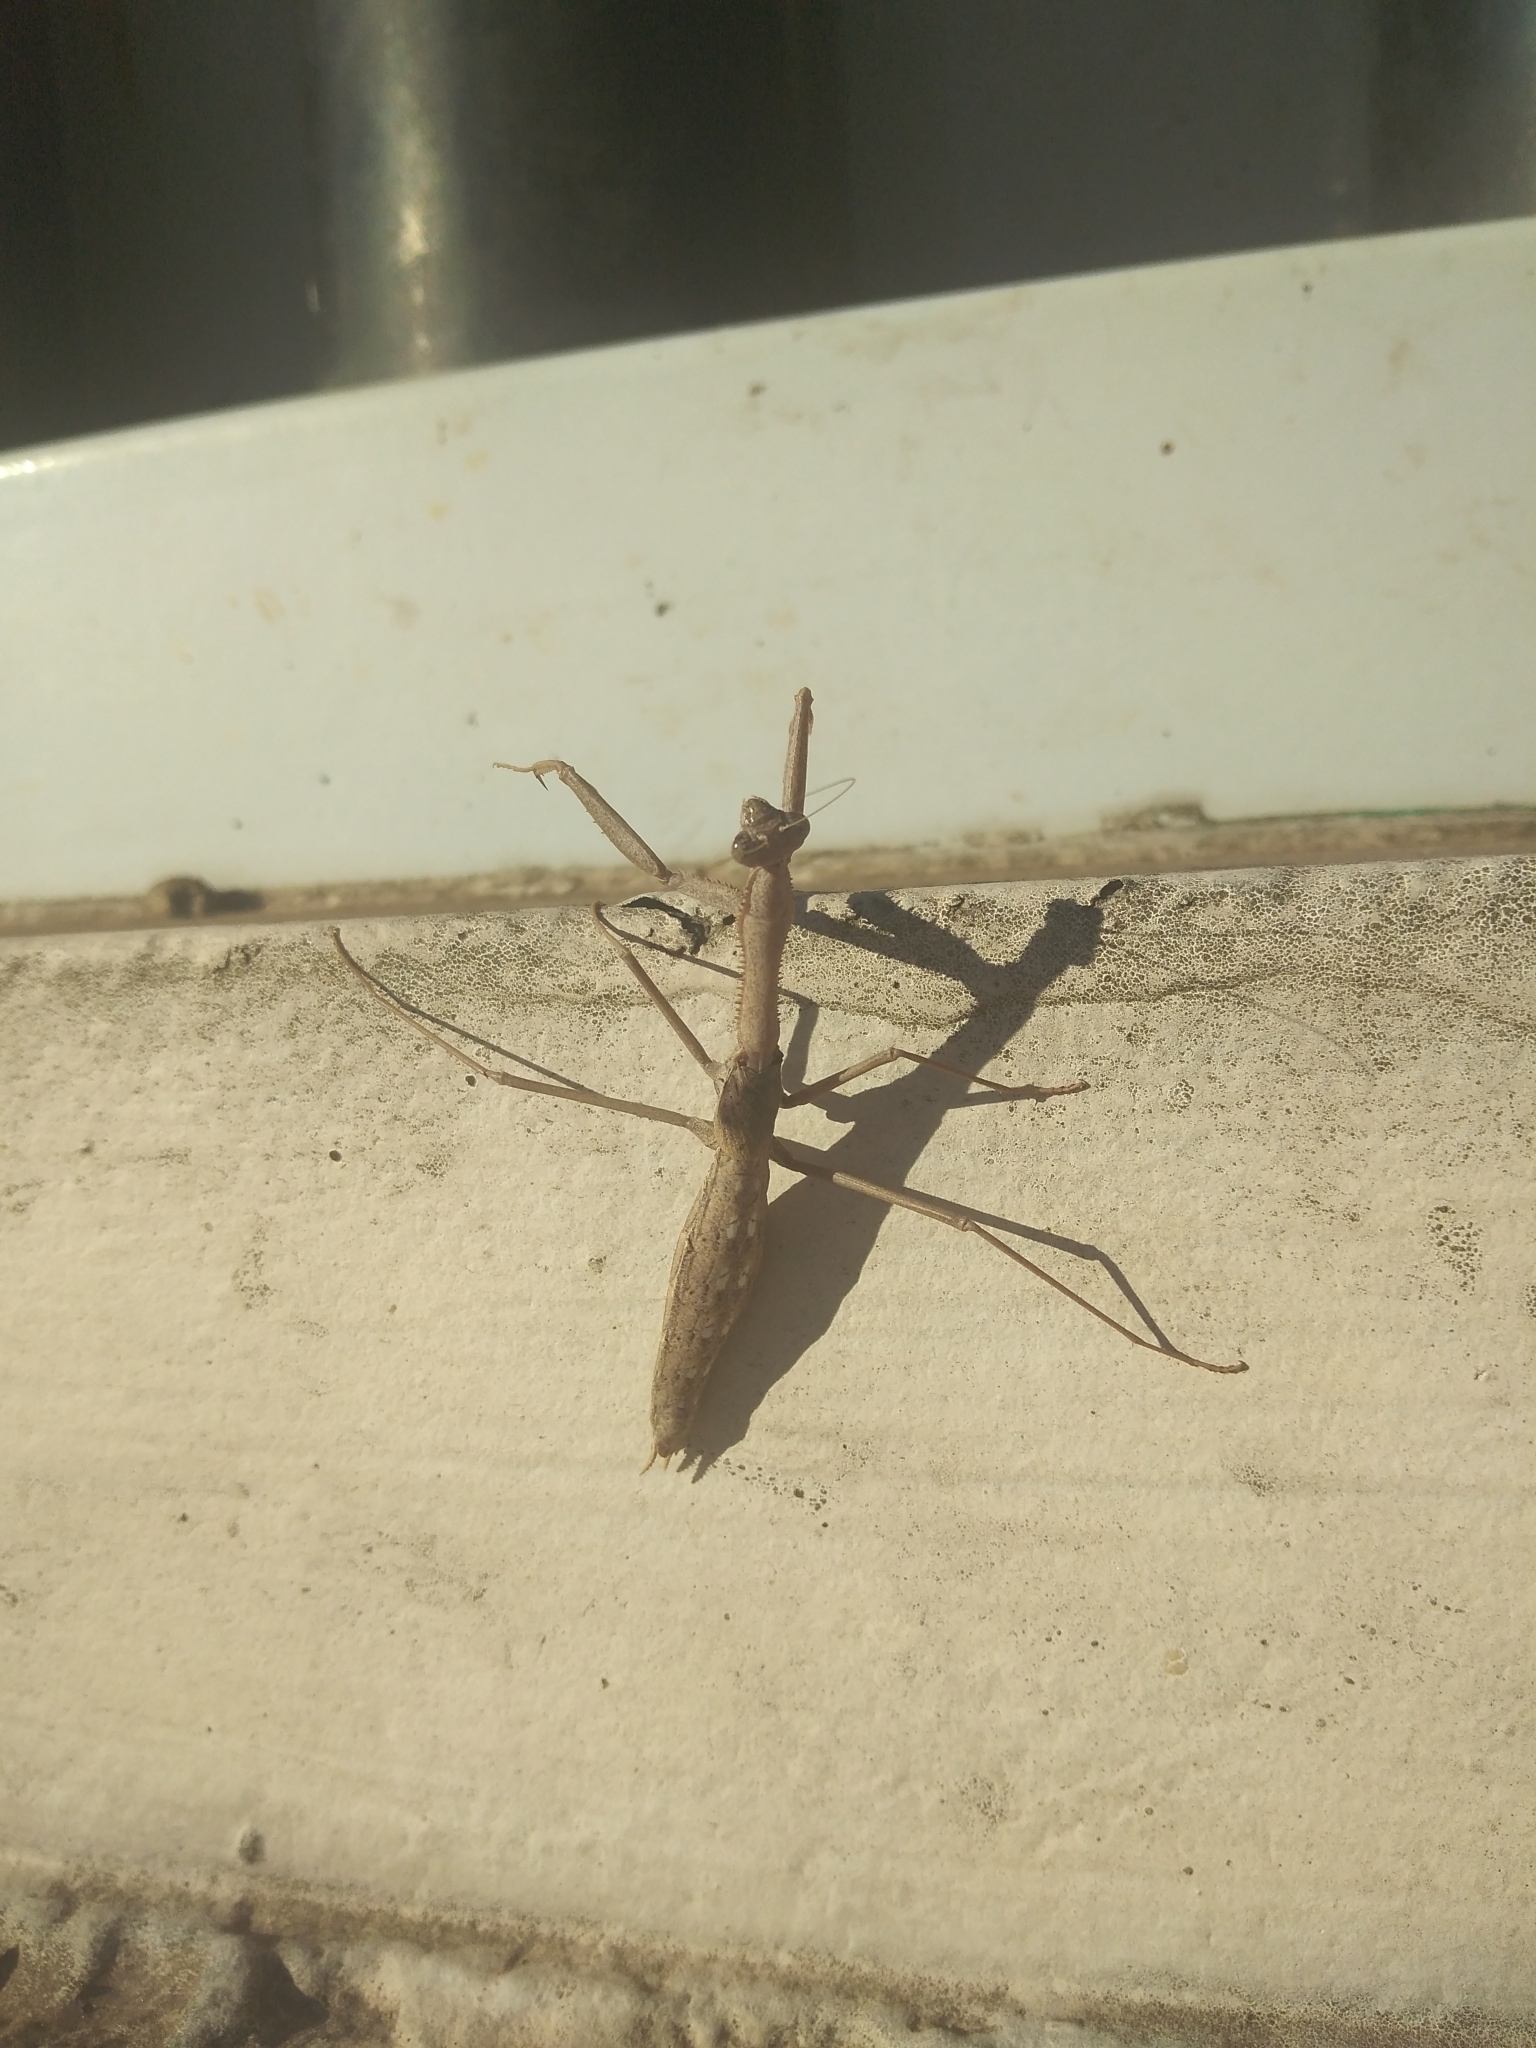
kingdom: Animalia
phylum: Arthropoda
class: Insecta
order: Mantodea
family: Coptopterygidae
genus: Coptopteryx
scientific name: Coptopteryx gayi
